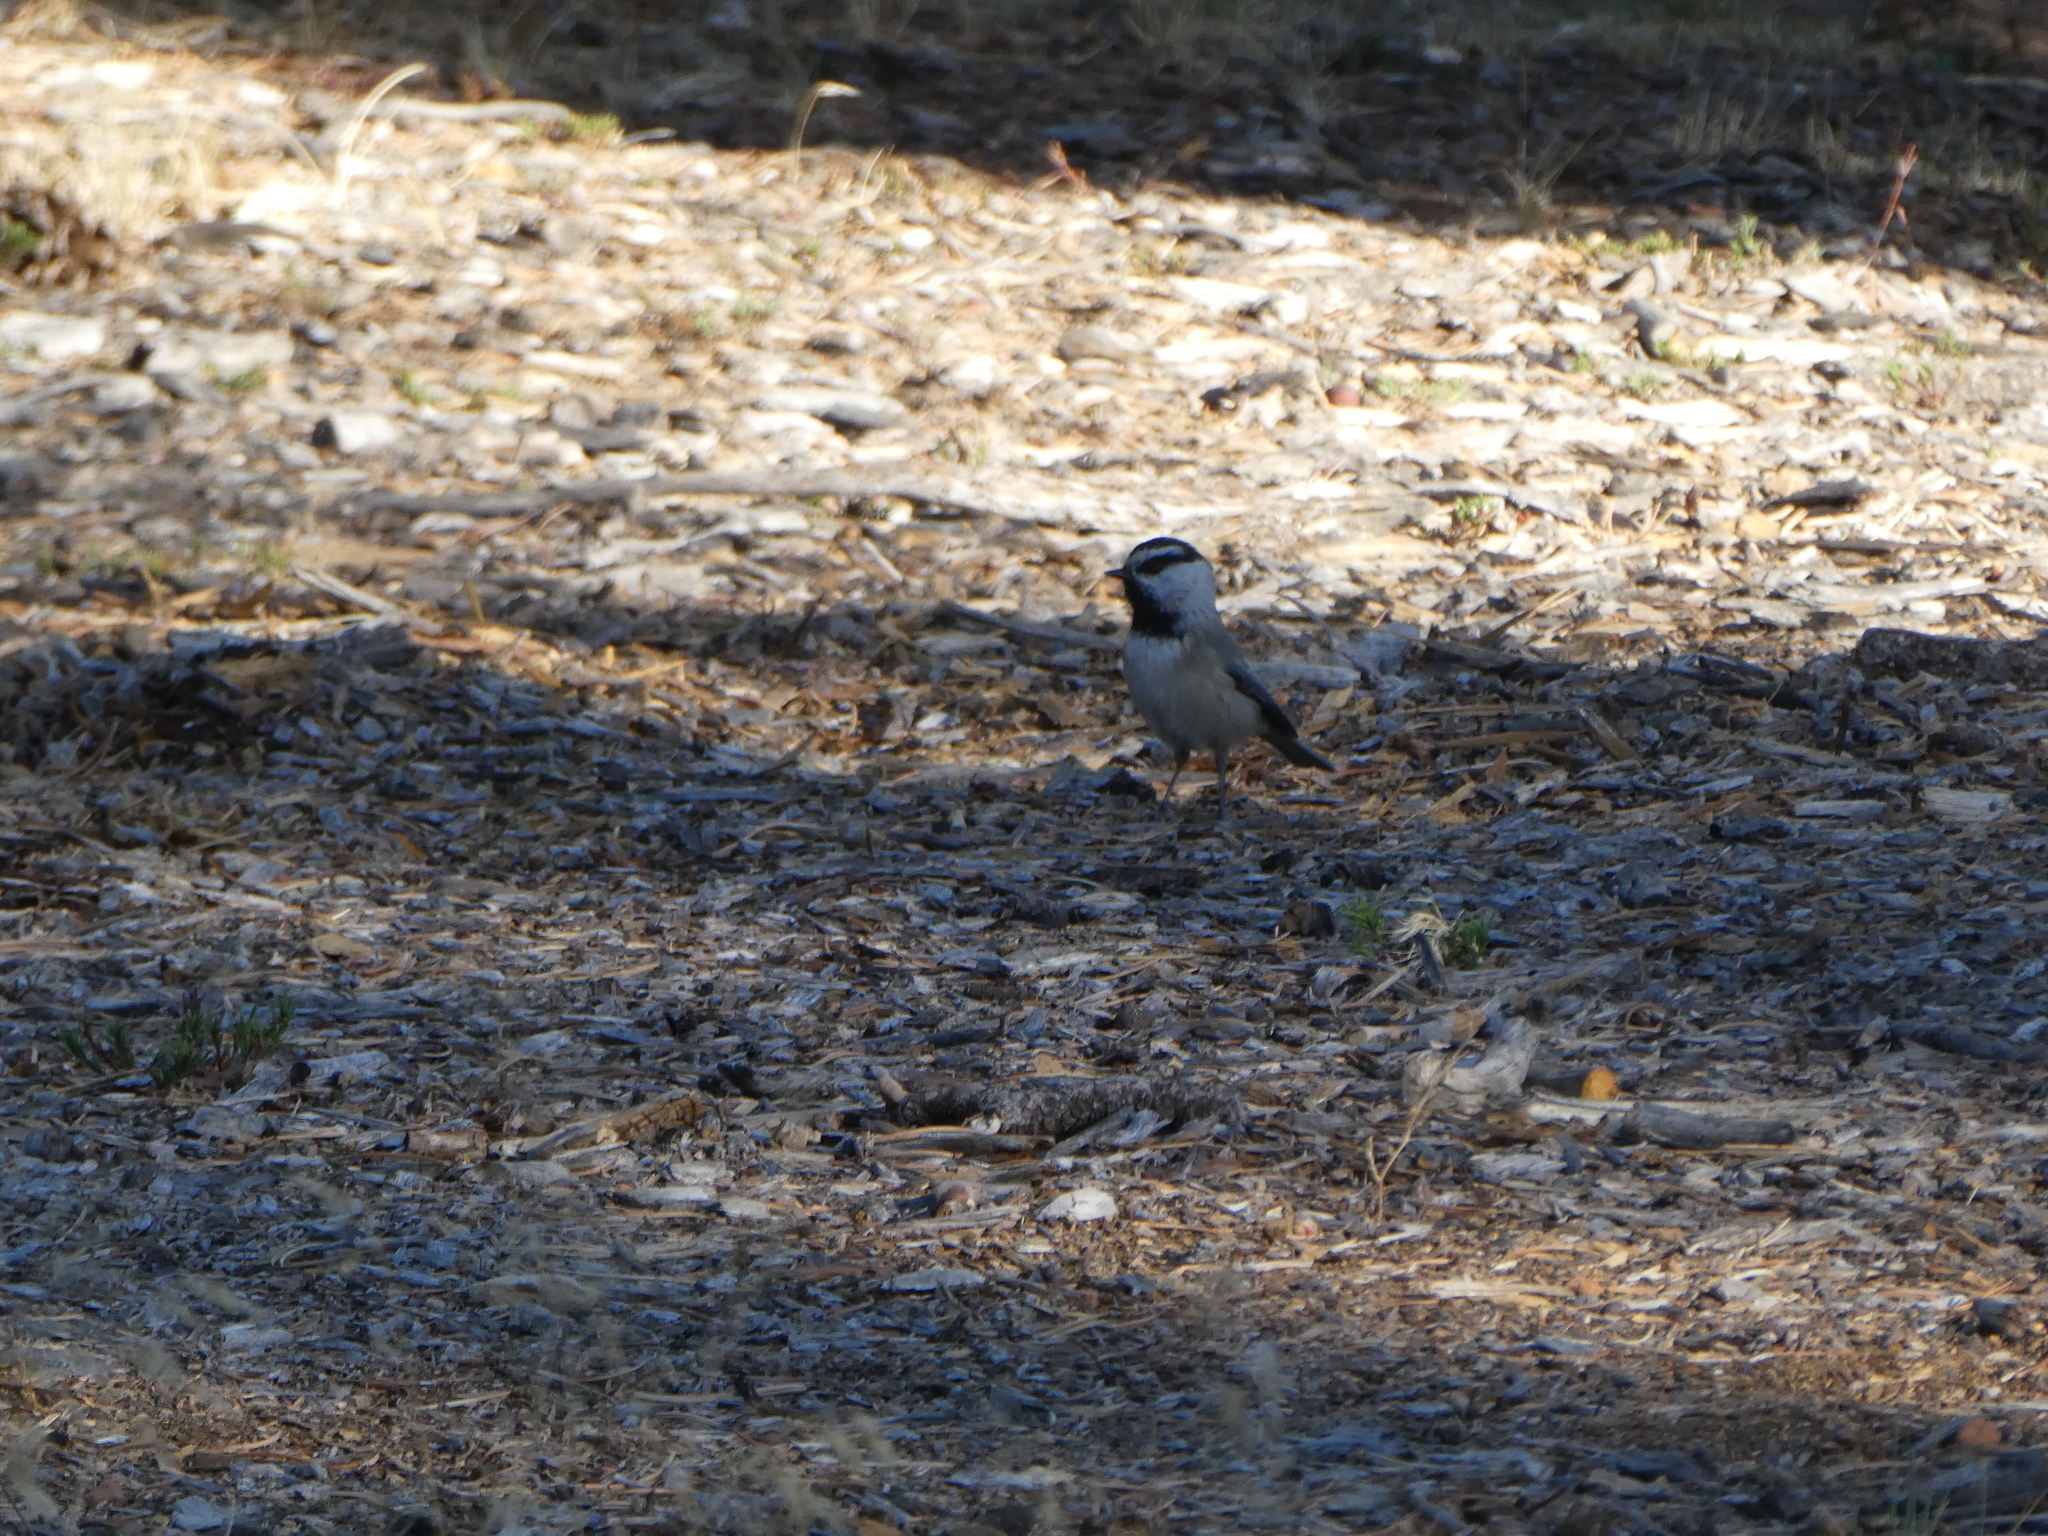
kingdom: Animalia
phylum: Chordata
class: Aves
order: Passeriformes
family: Paridae
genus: Poecile
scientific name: Poecile gambeli
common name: Mountain chickadee
